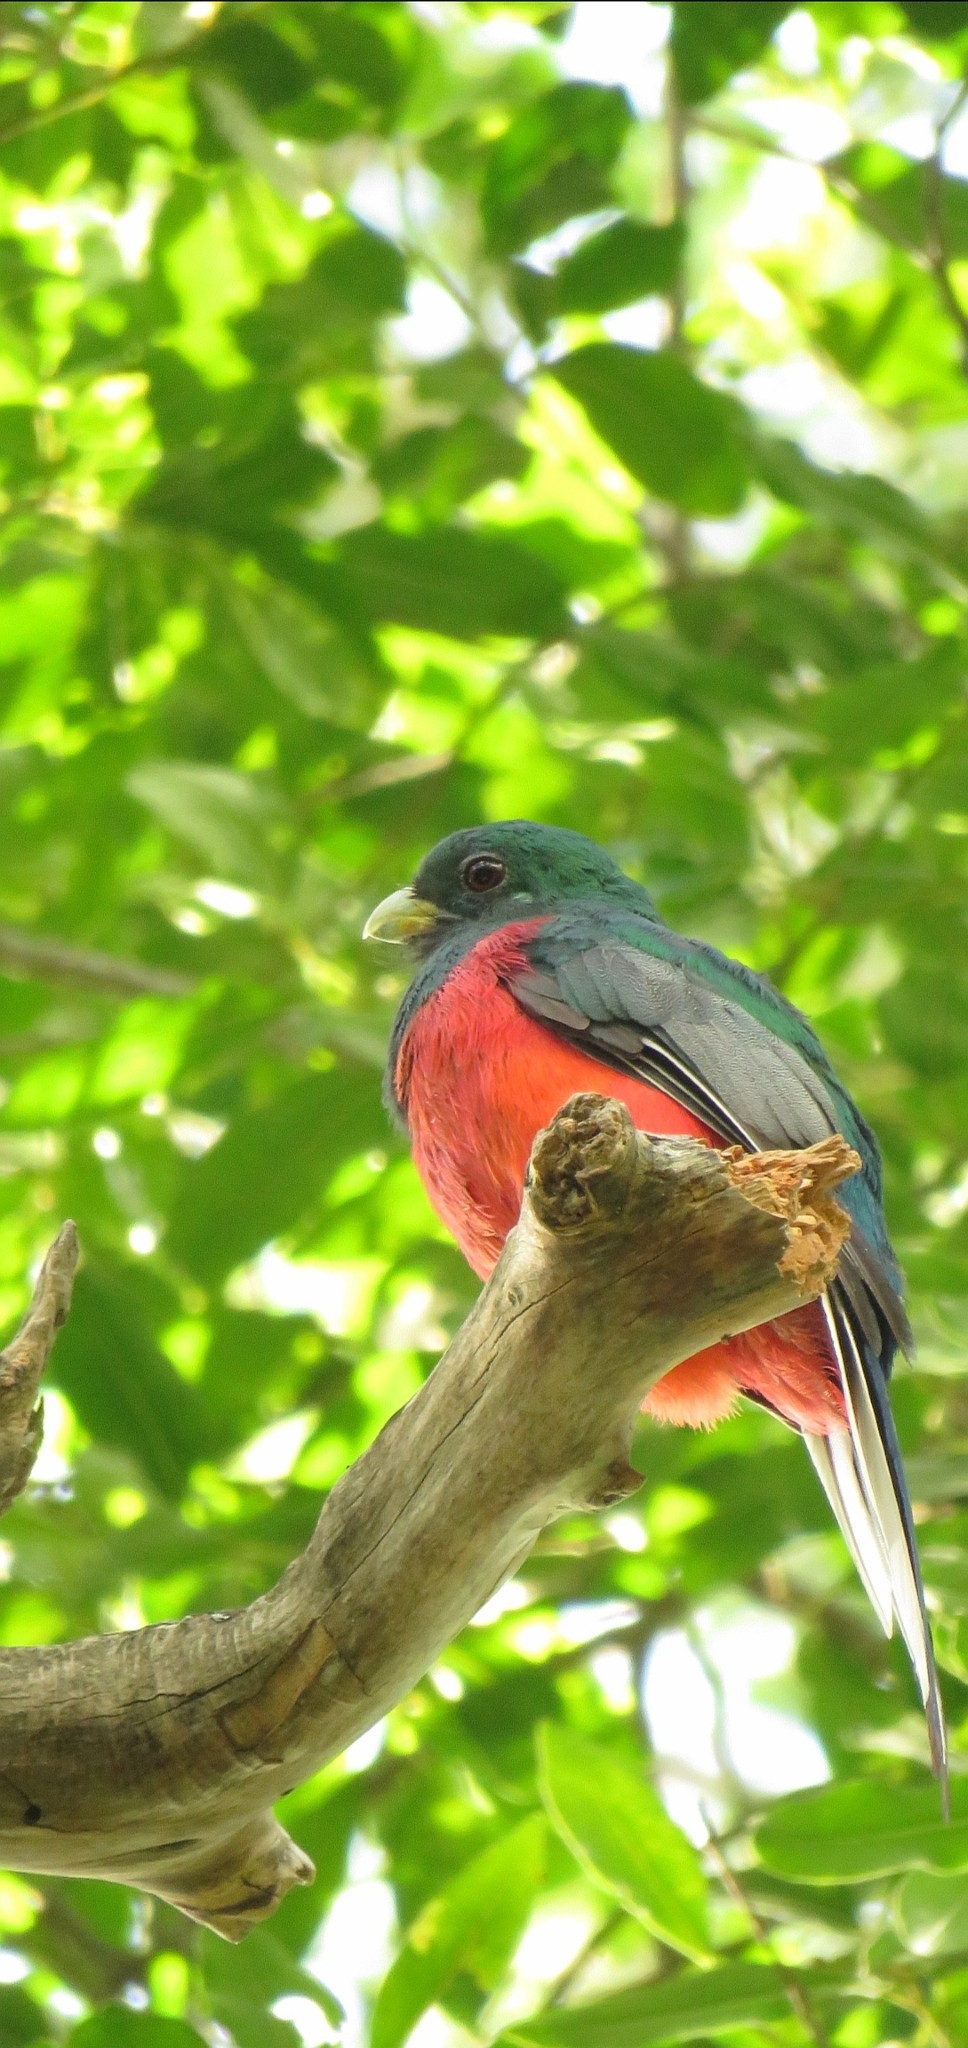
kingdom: Animalia
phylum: Chordata
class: Aves
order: Trogoniformes
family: Trogonidae
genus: Apaloderma
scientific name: Apaloderma narina
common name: Narina trogon
